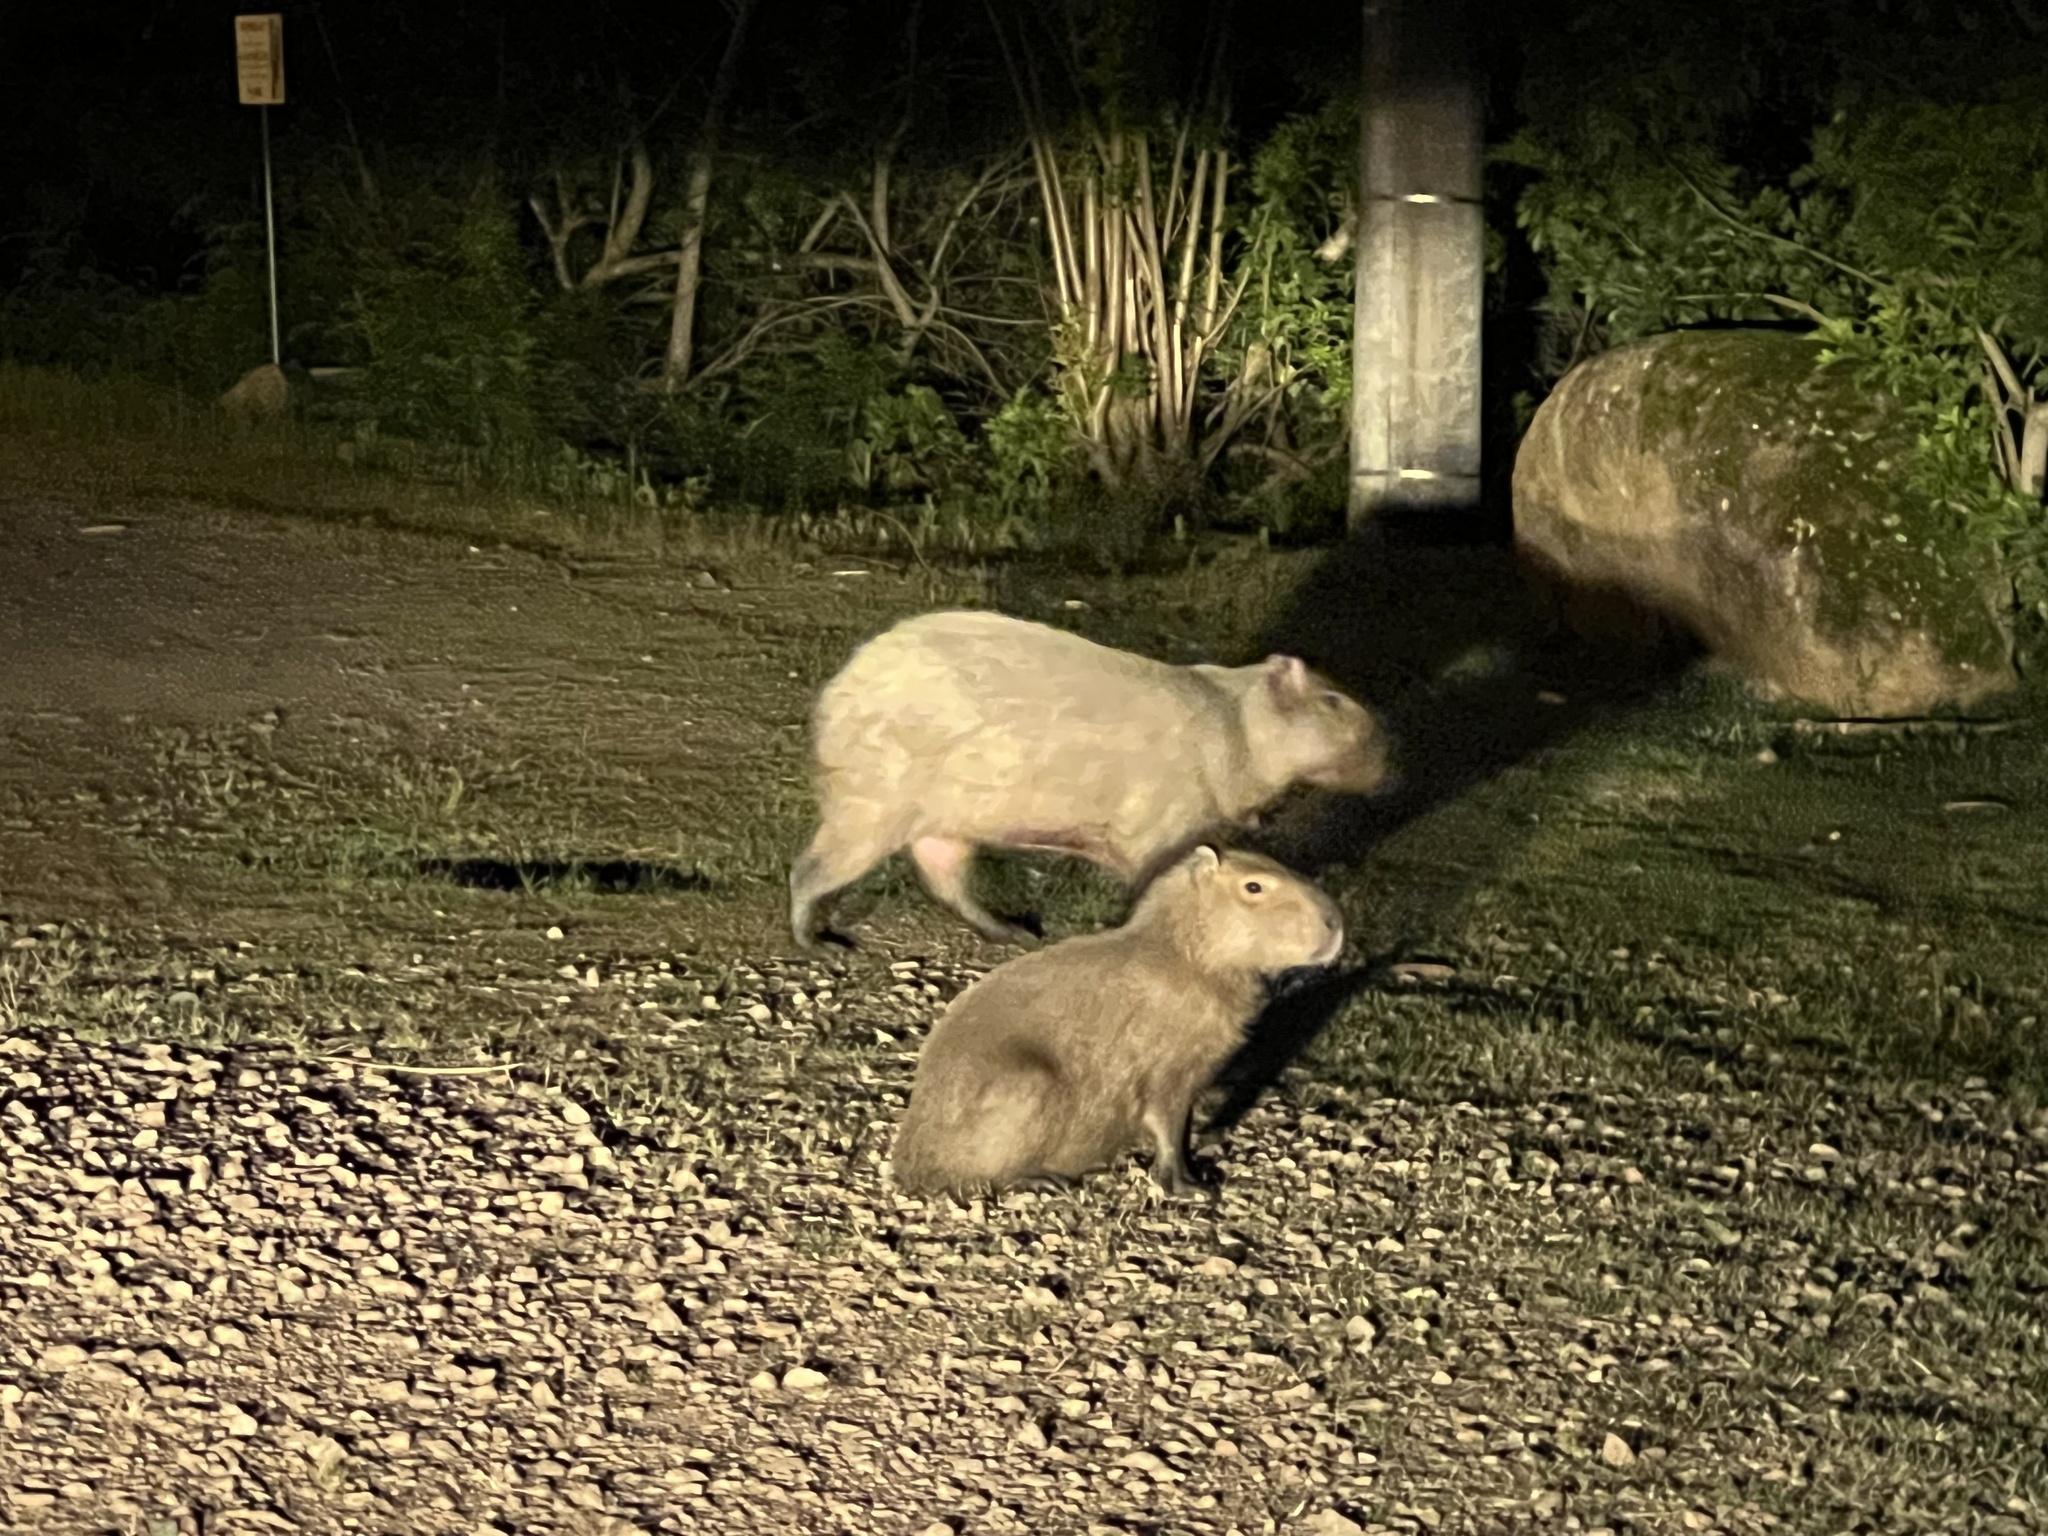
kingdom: Animalia
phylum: Chordata
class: Mammalia
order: Rodentia
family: Caviidae
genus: Hydrochoerus
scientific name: Hydrochoerus hydrochaeris
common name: Capybara
